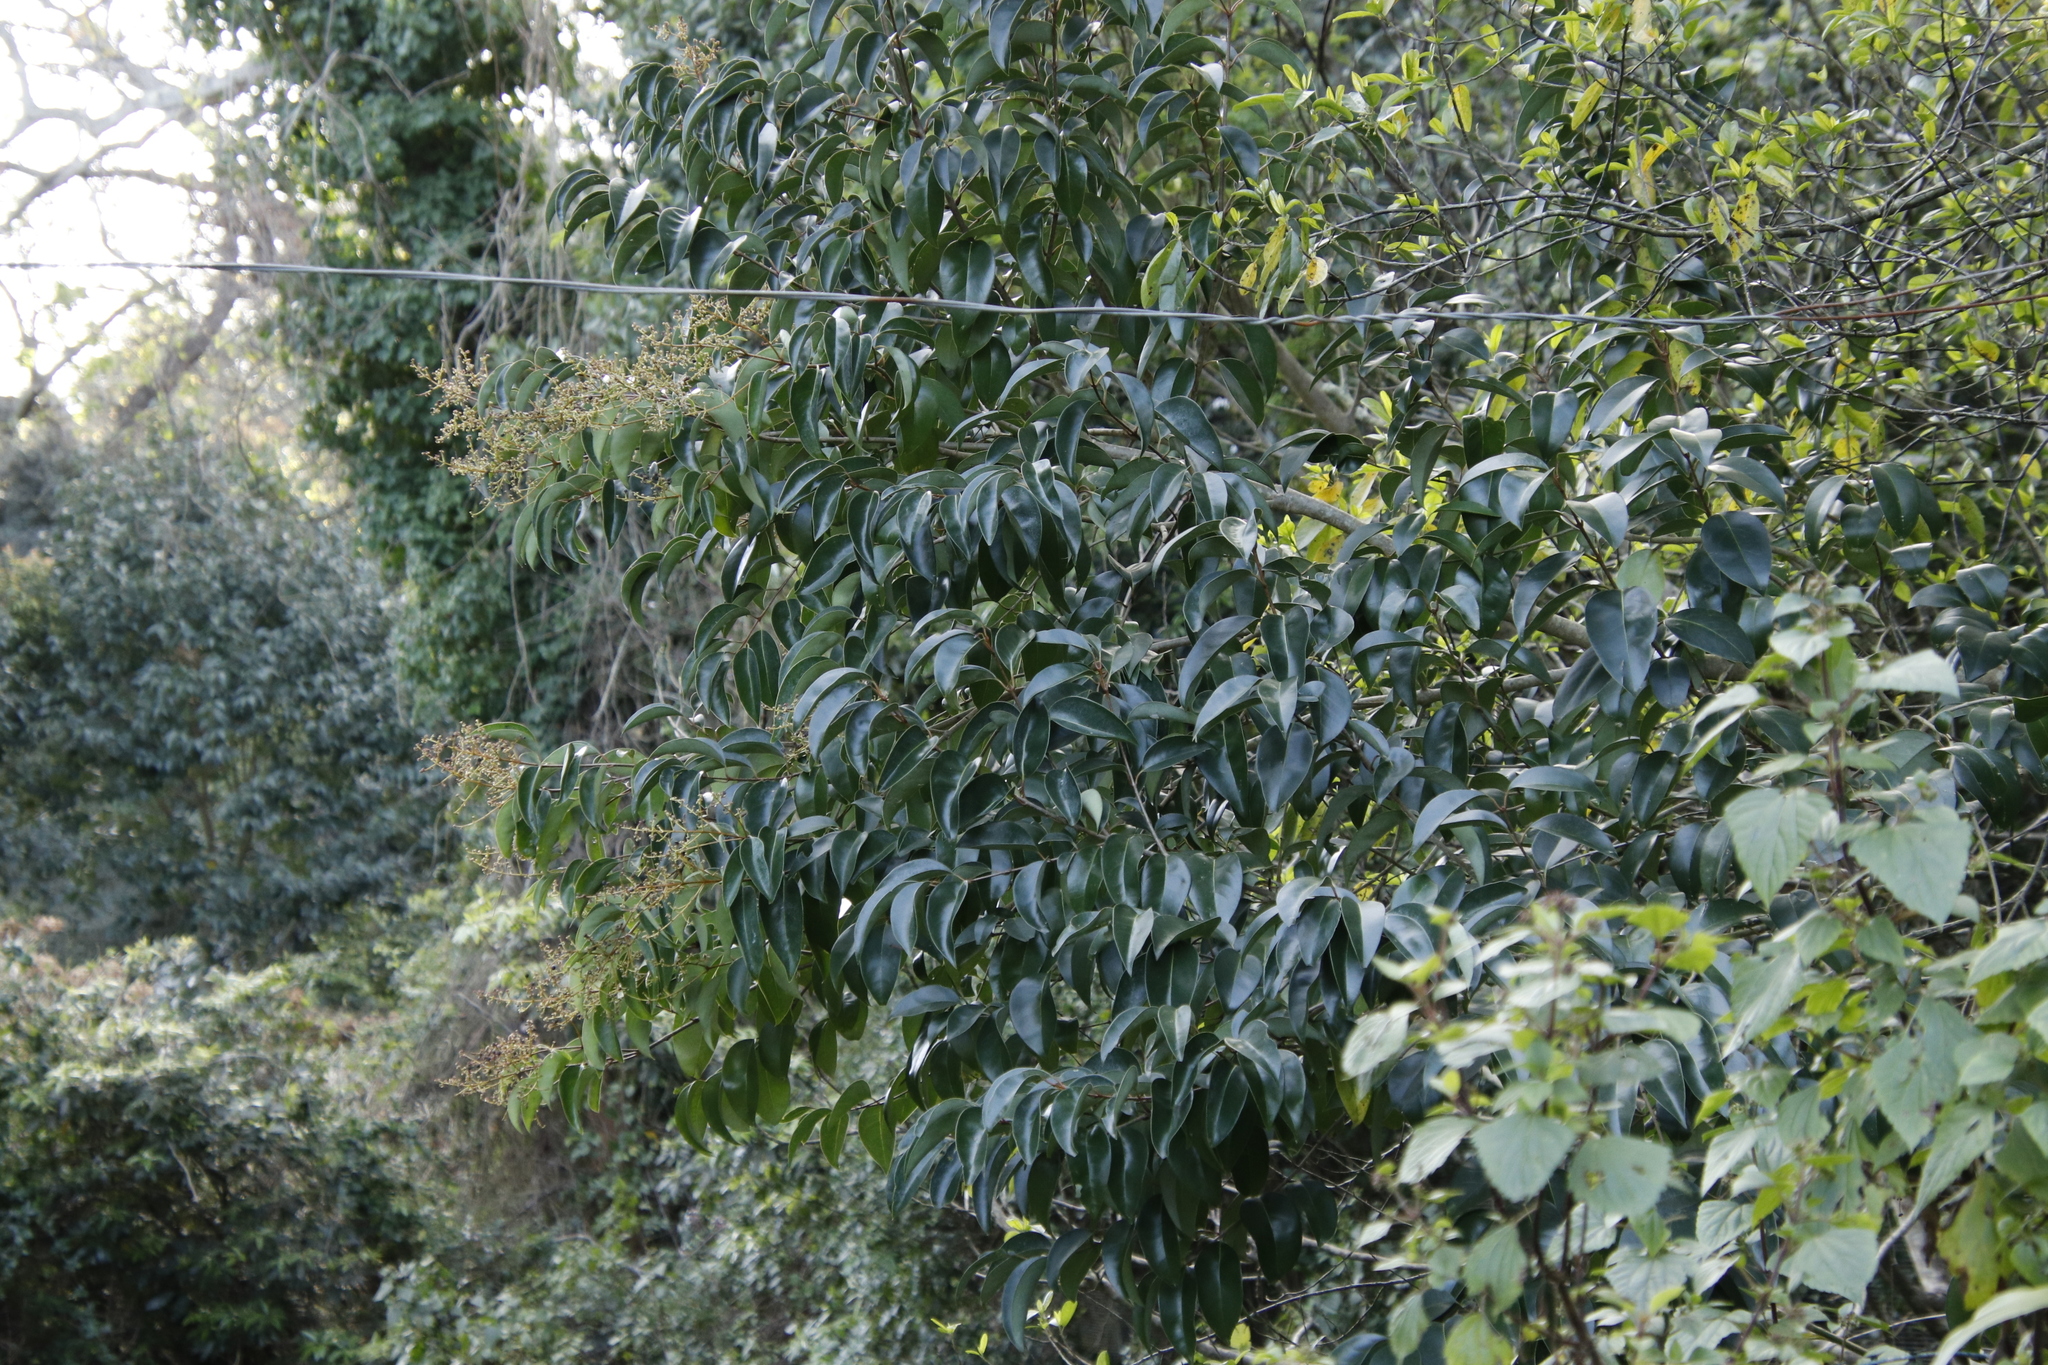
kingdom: Plantae
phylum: Tracheophyta
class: Magnoliopsida
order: Lamiales
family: Oleaceae
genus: Ligustrum
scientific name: Ligustrum lucidum
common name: Glossy privet
